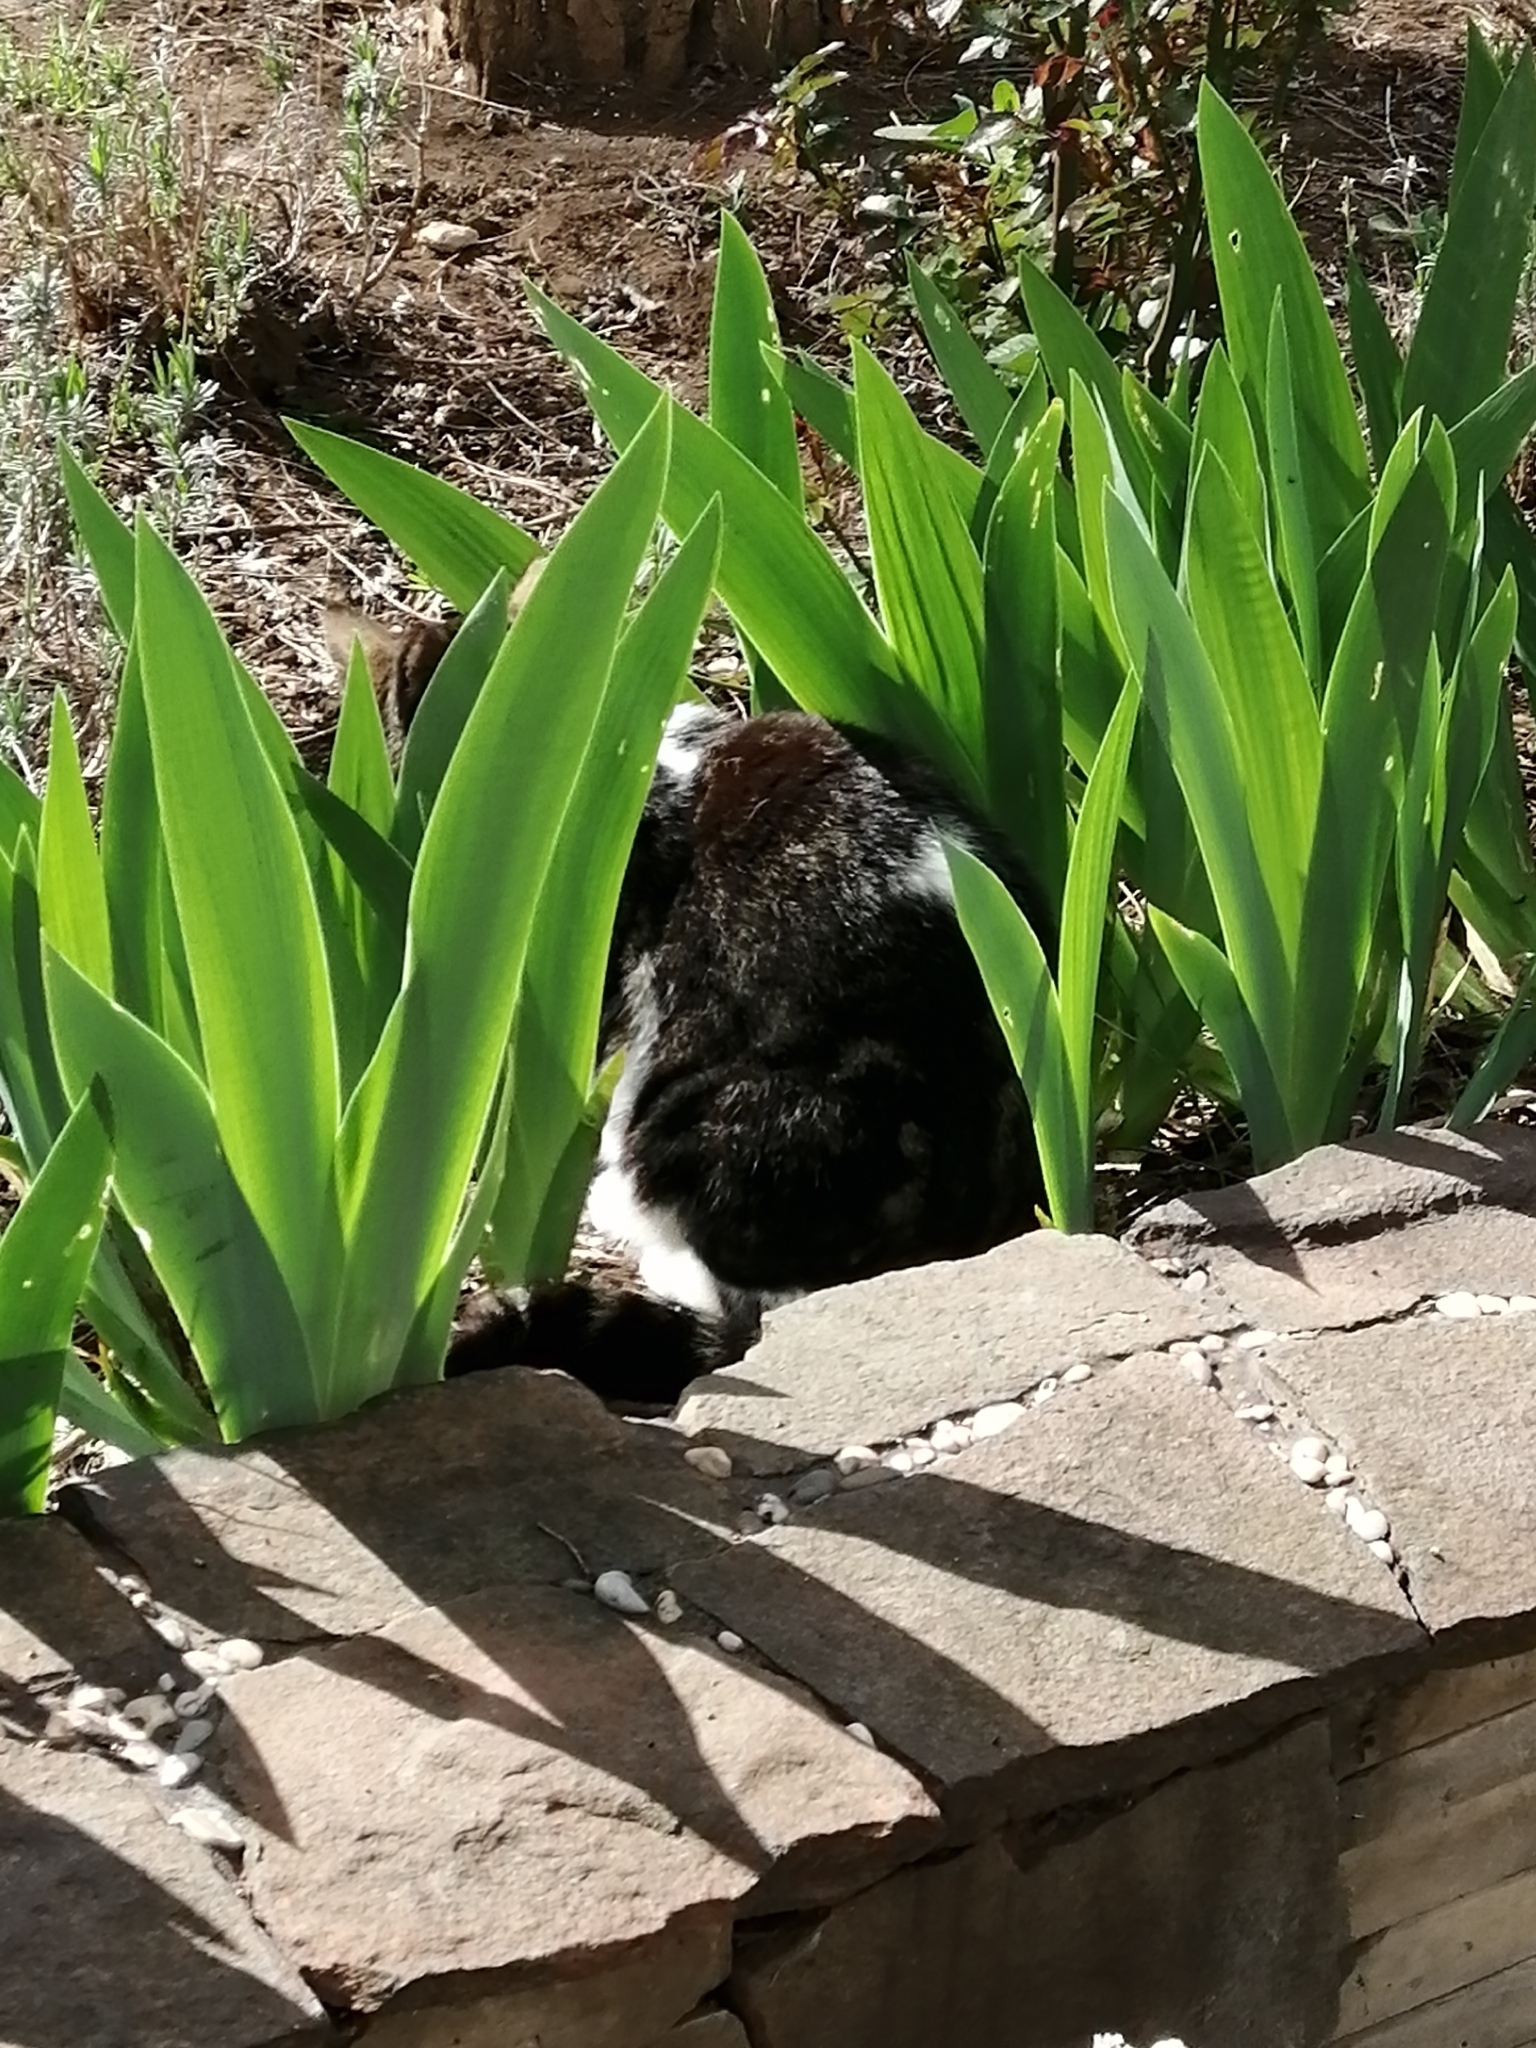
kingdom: Animalia
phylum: Chordata
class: Mammalia
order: Carnivora
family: Felidae
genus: Felis
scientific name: Felis catus
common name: Domestic cat
